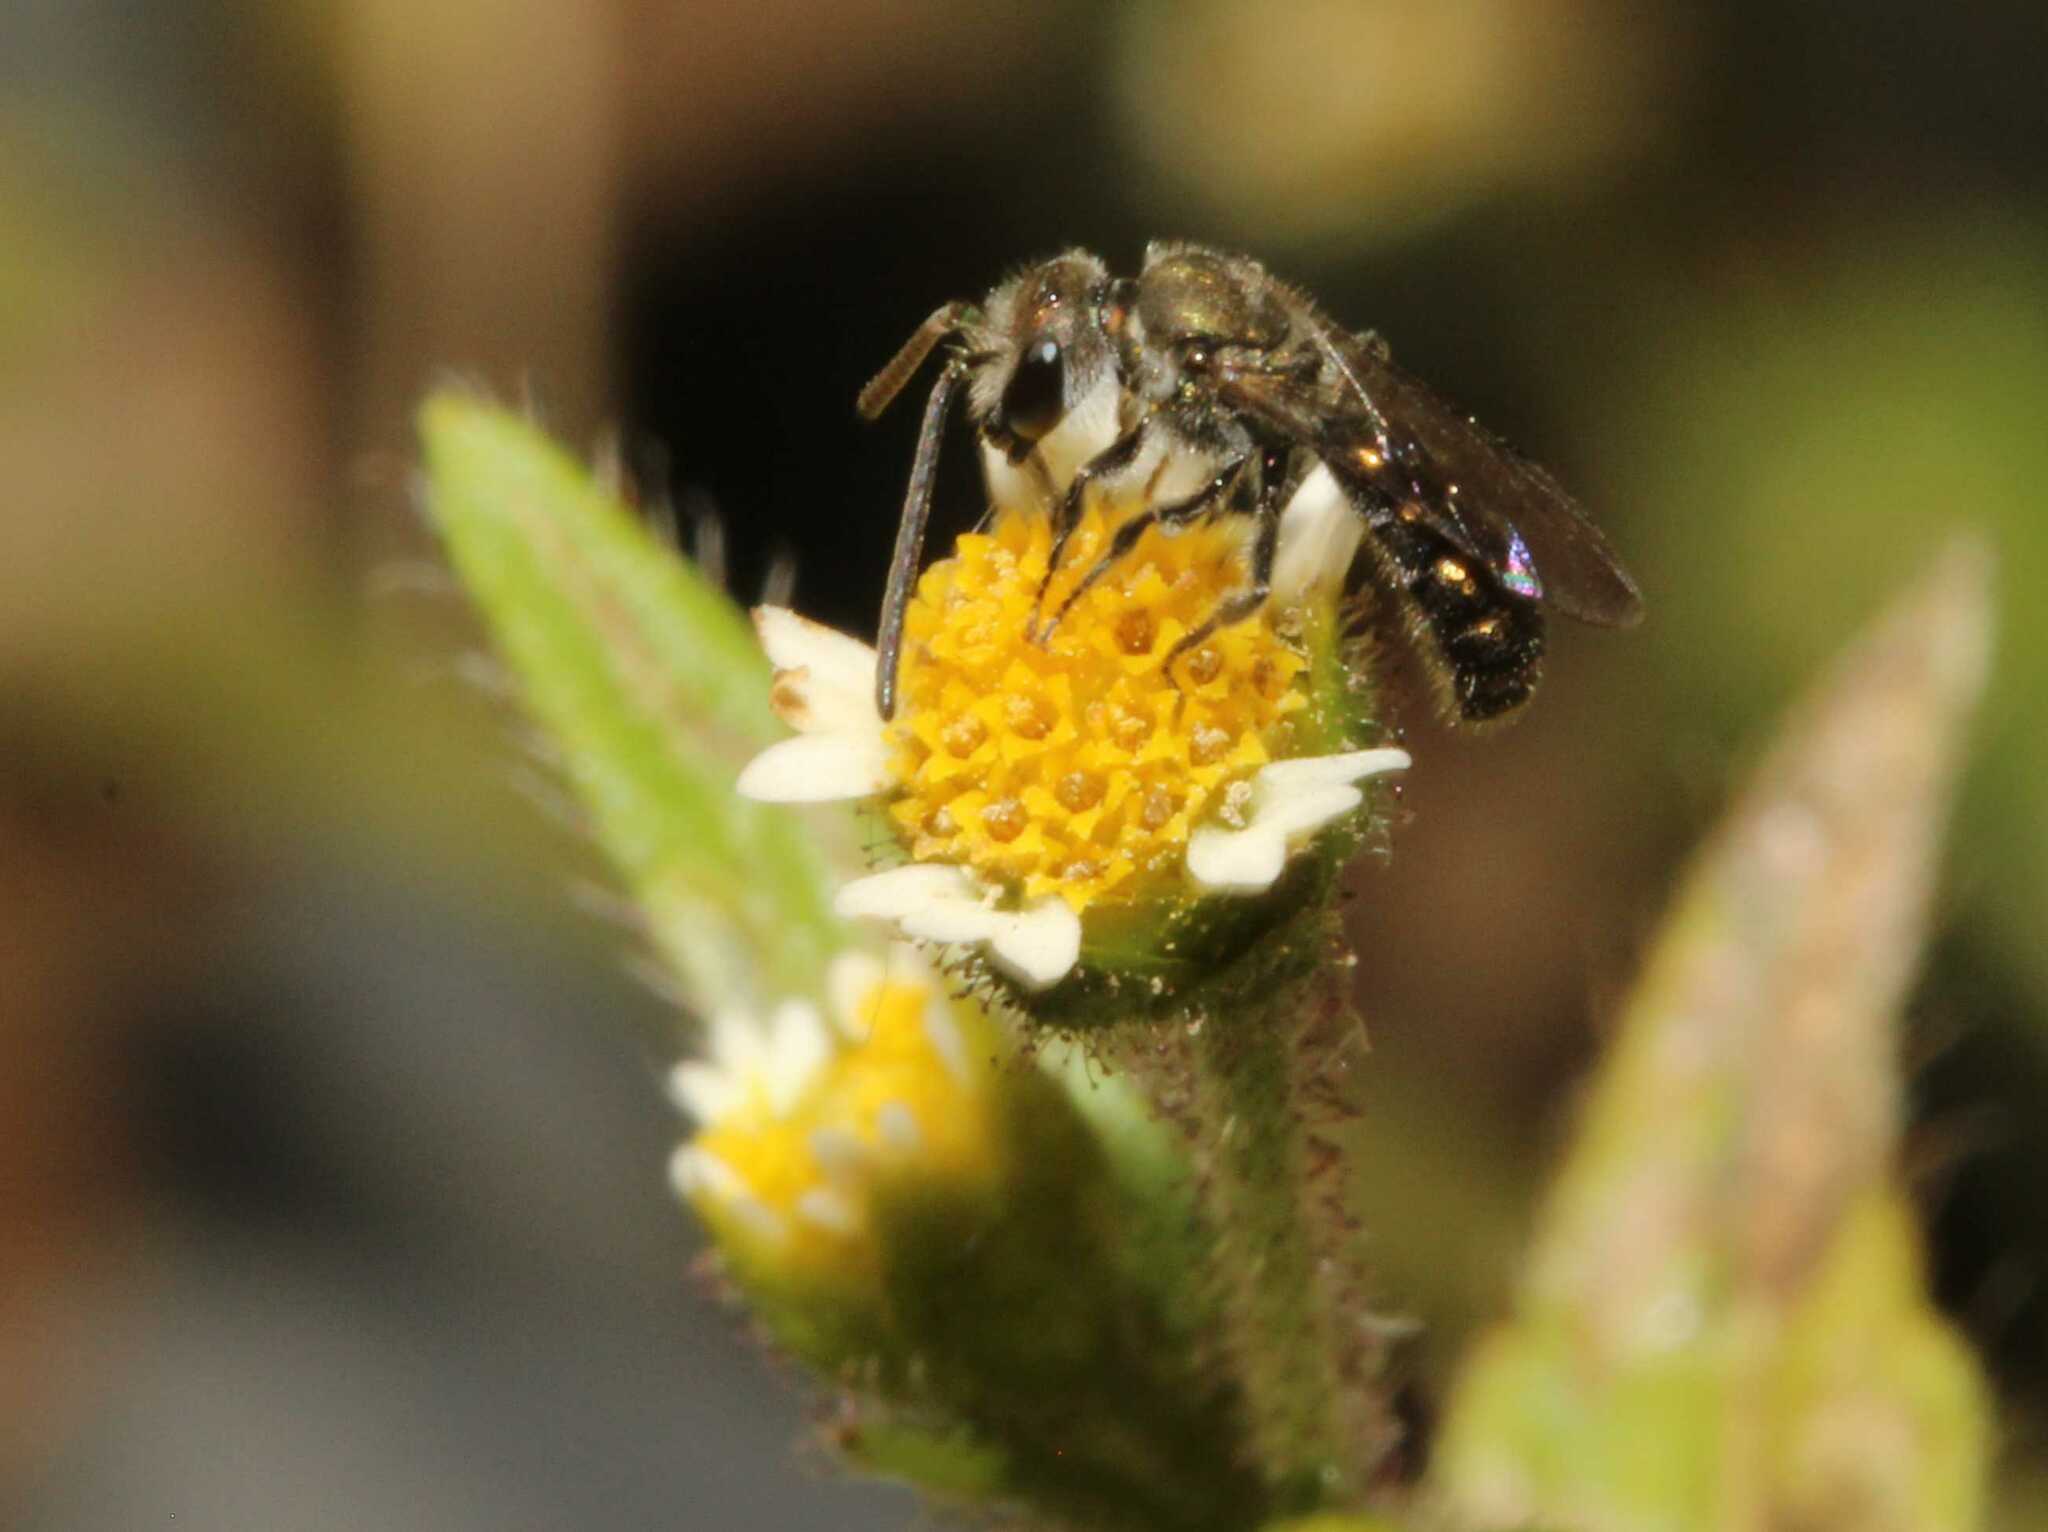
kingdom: Animalia
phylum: Arthropoda
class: Insecta
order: Hymenoptera
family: Halictidae
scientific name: Halictidae
